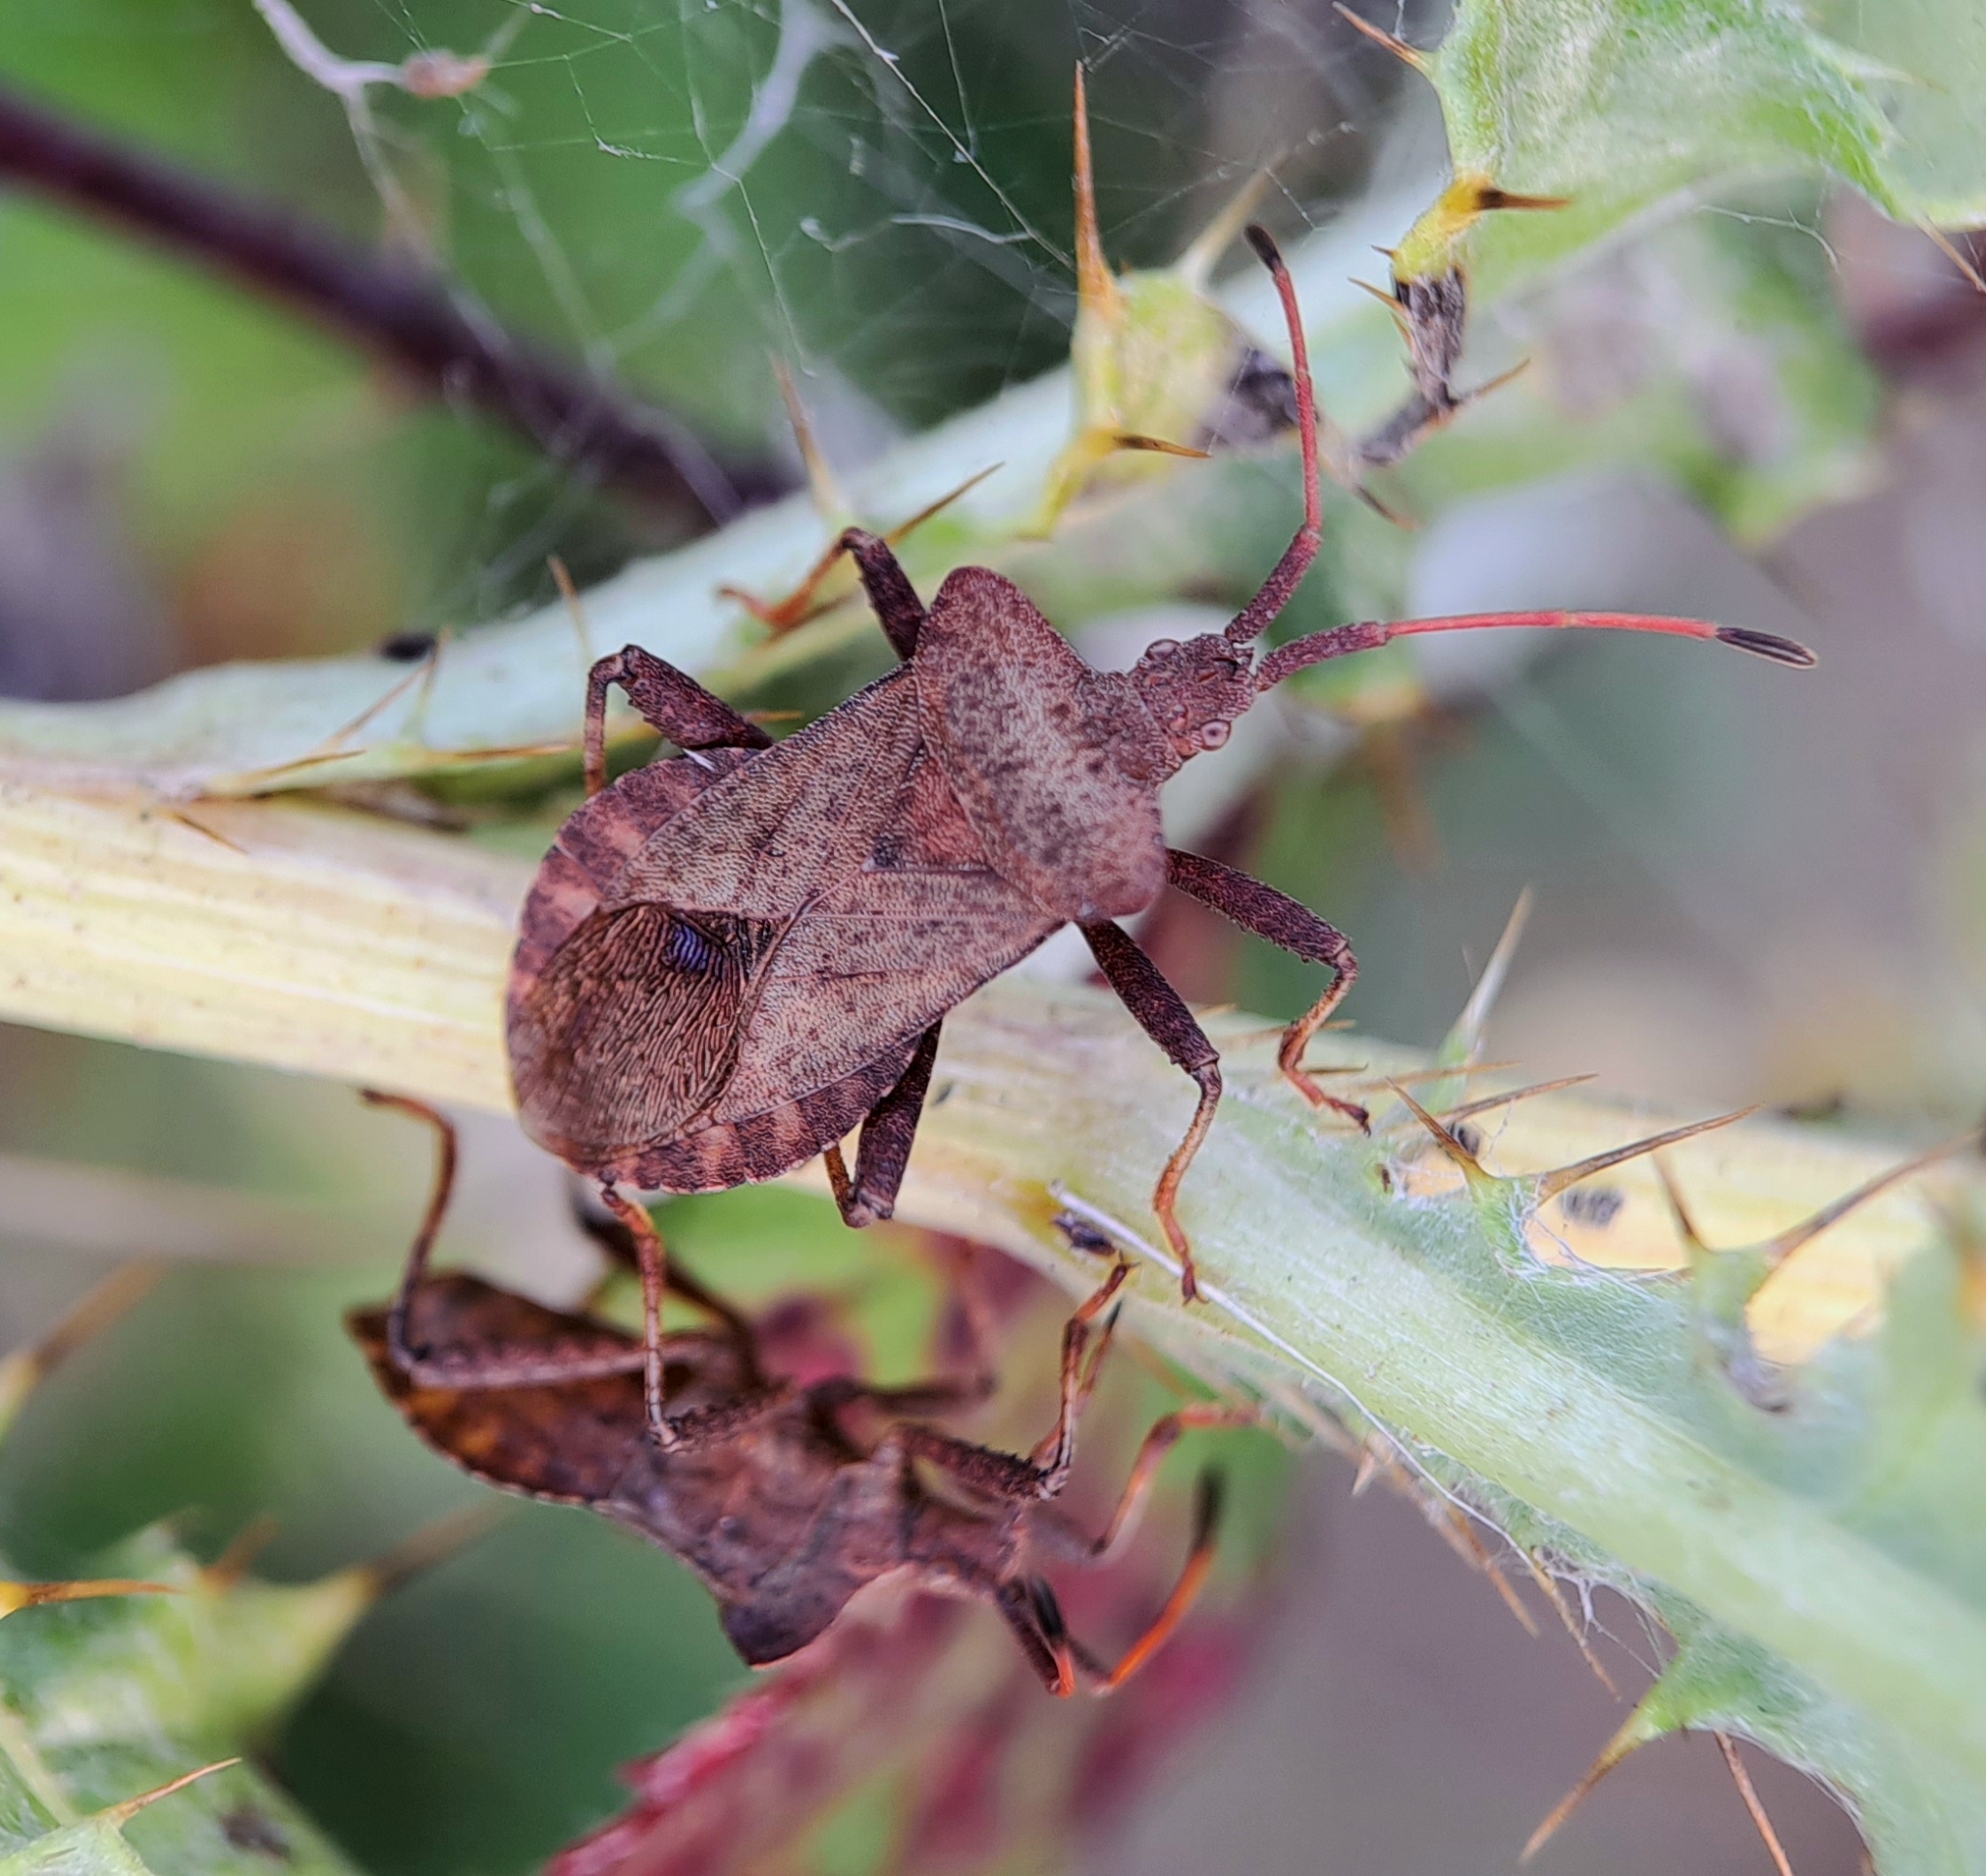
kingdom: Animalia
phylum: Arthropoda
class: Insecta
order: Hemiptera
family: Coreidae
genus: Coreus
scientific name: Coreus marginatus
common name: Dock bug
